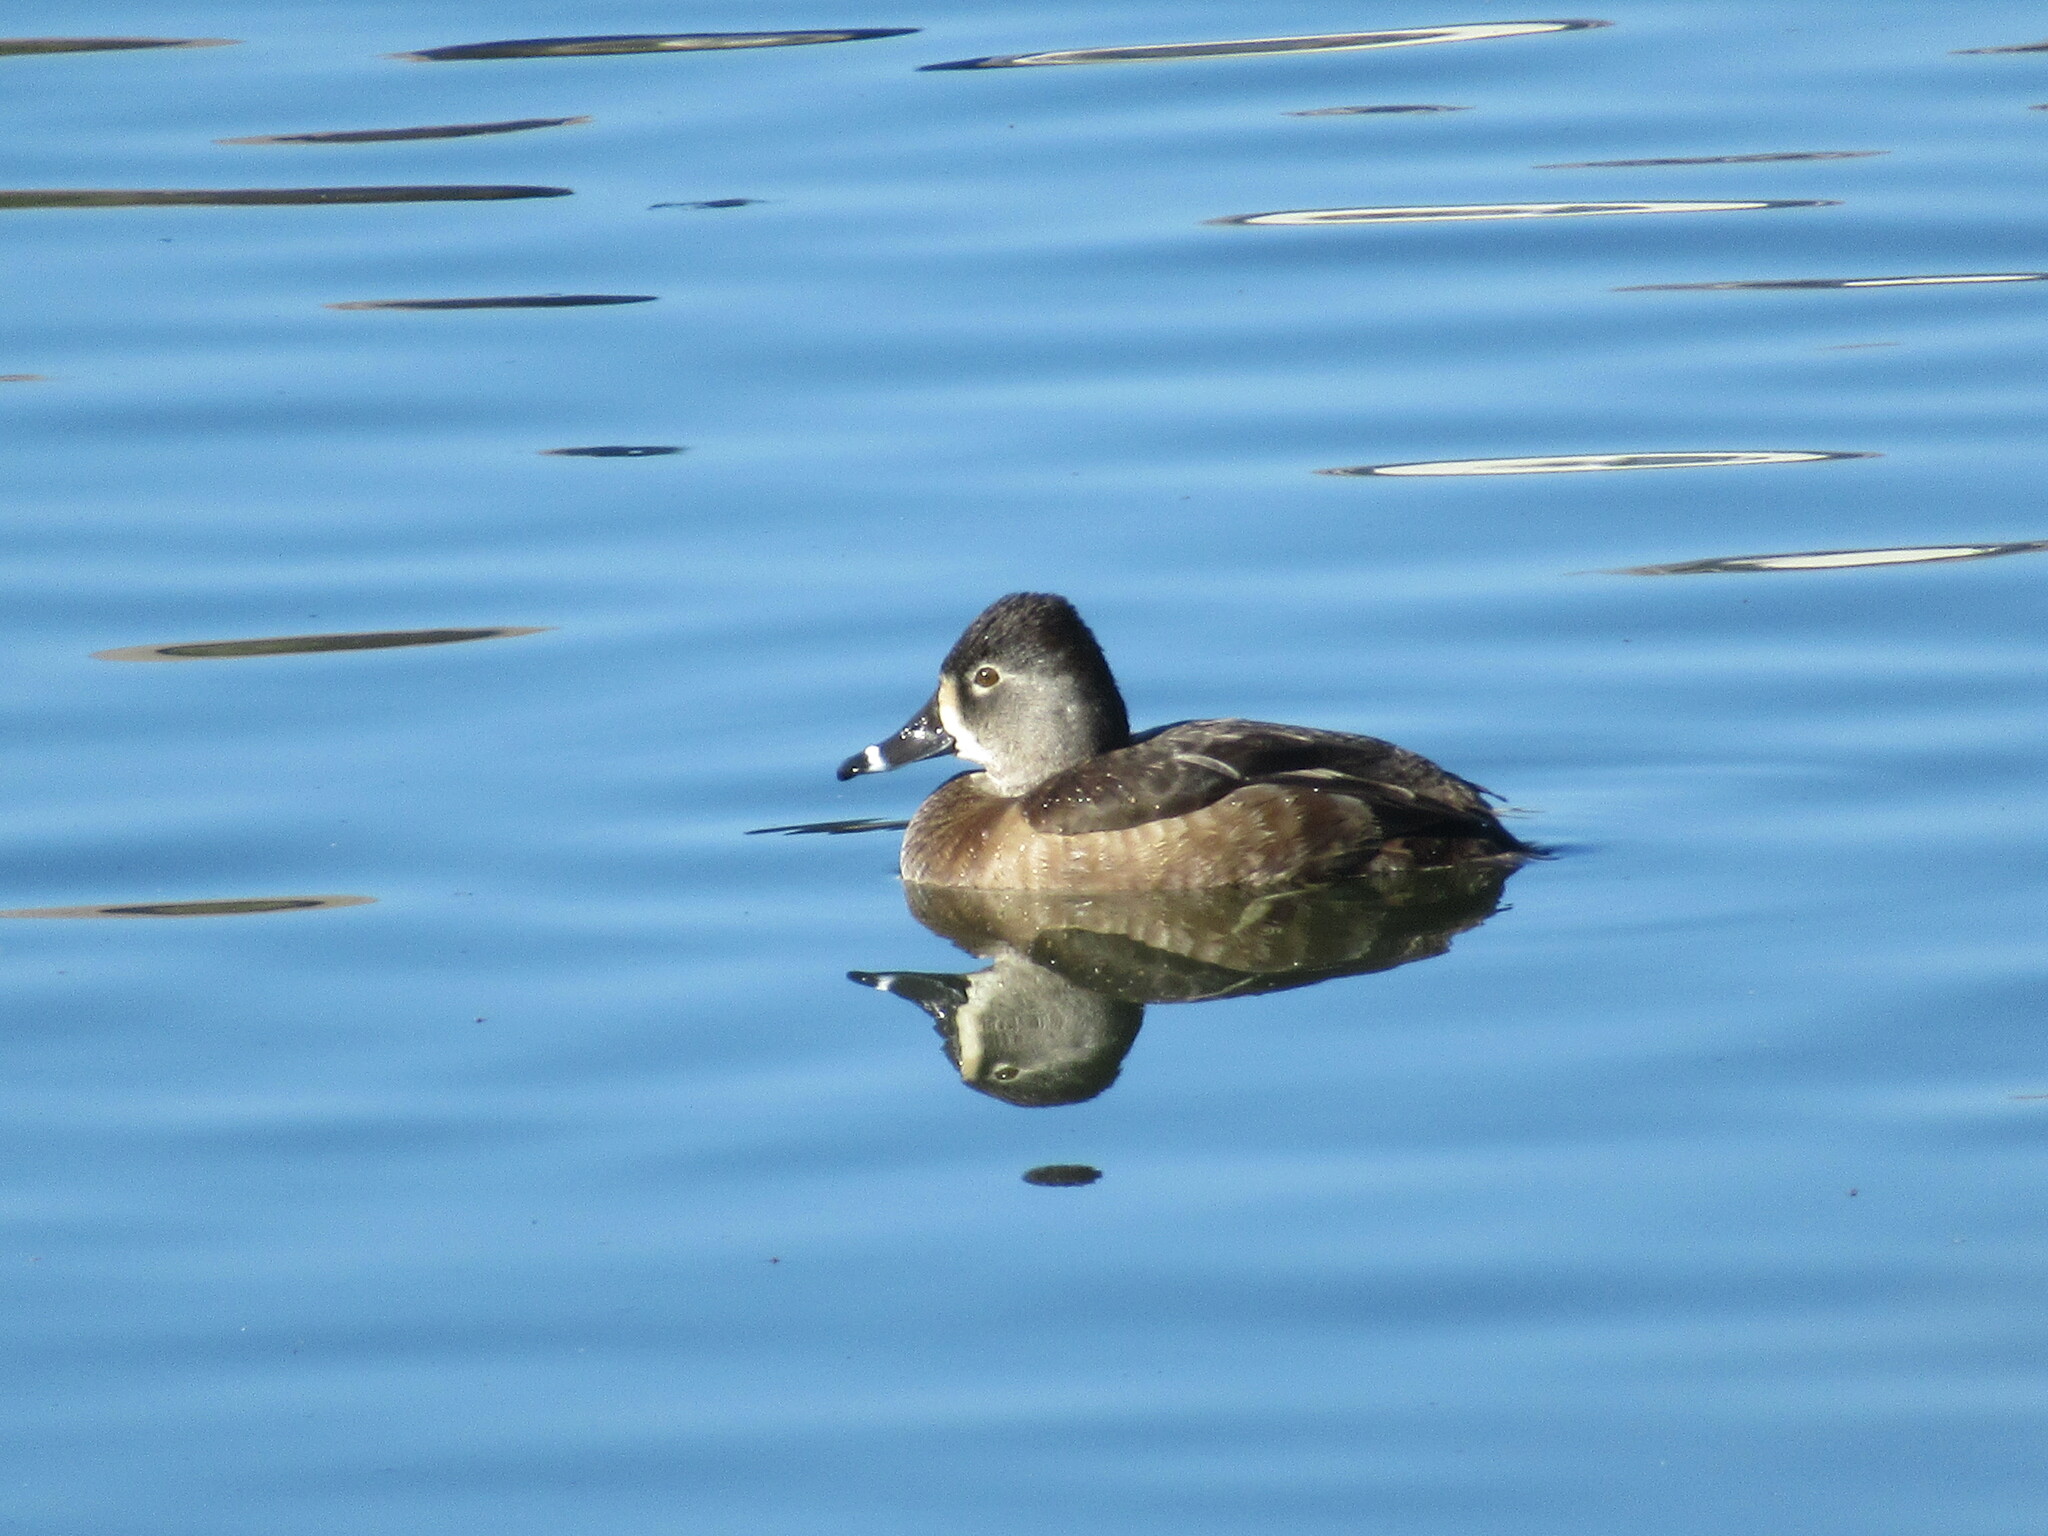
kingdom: Animalia
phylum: Chordata
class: Aves
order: Anseriformes
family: Anatidae
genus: Aythya
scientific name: Aythya collaris
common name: Ring-necked duck
